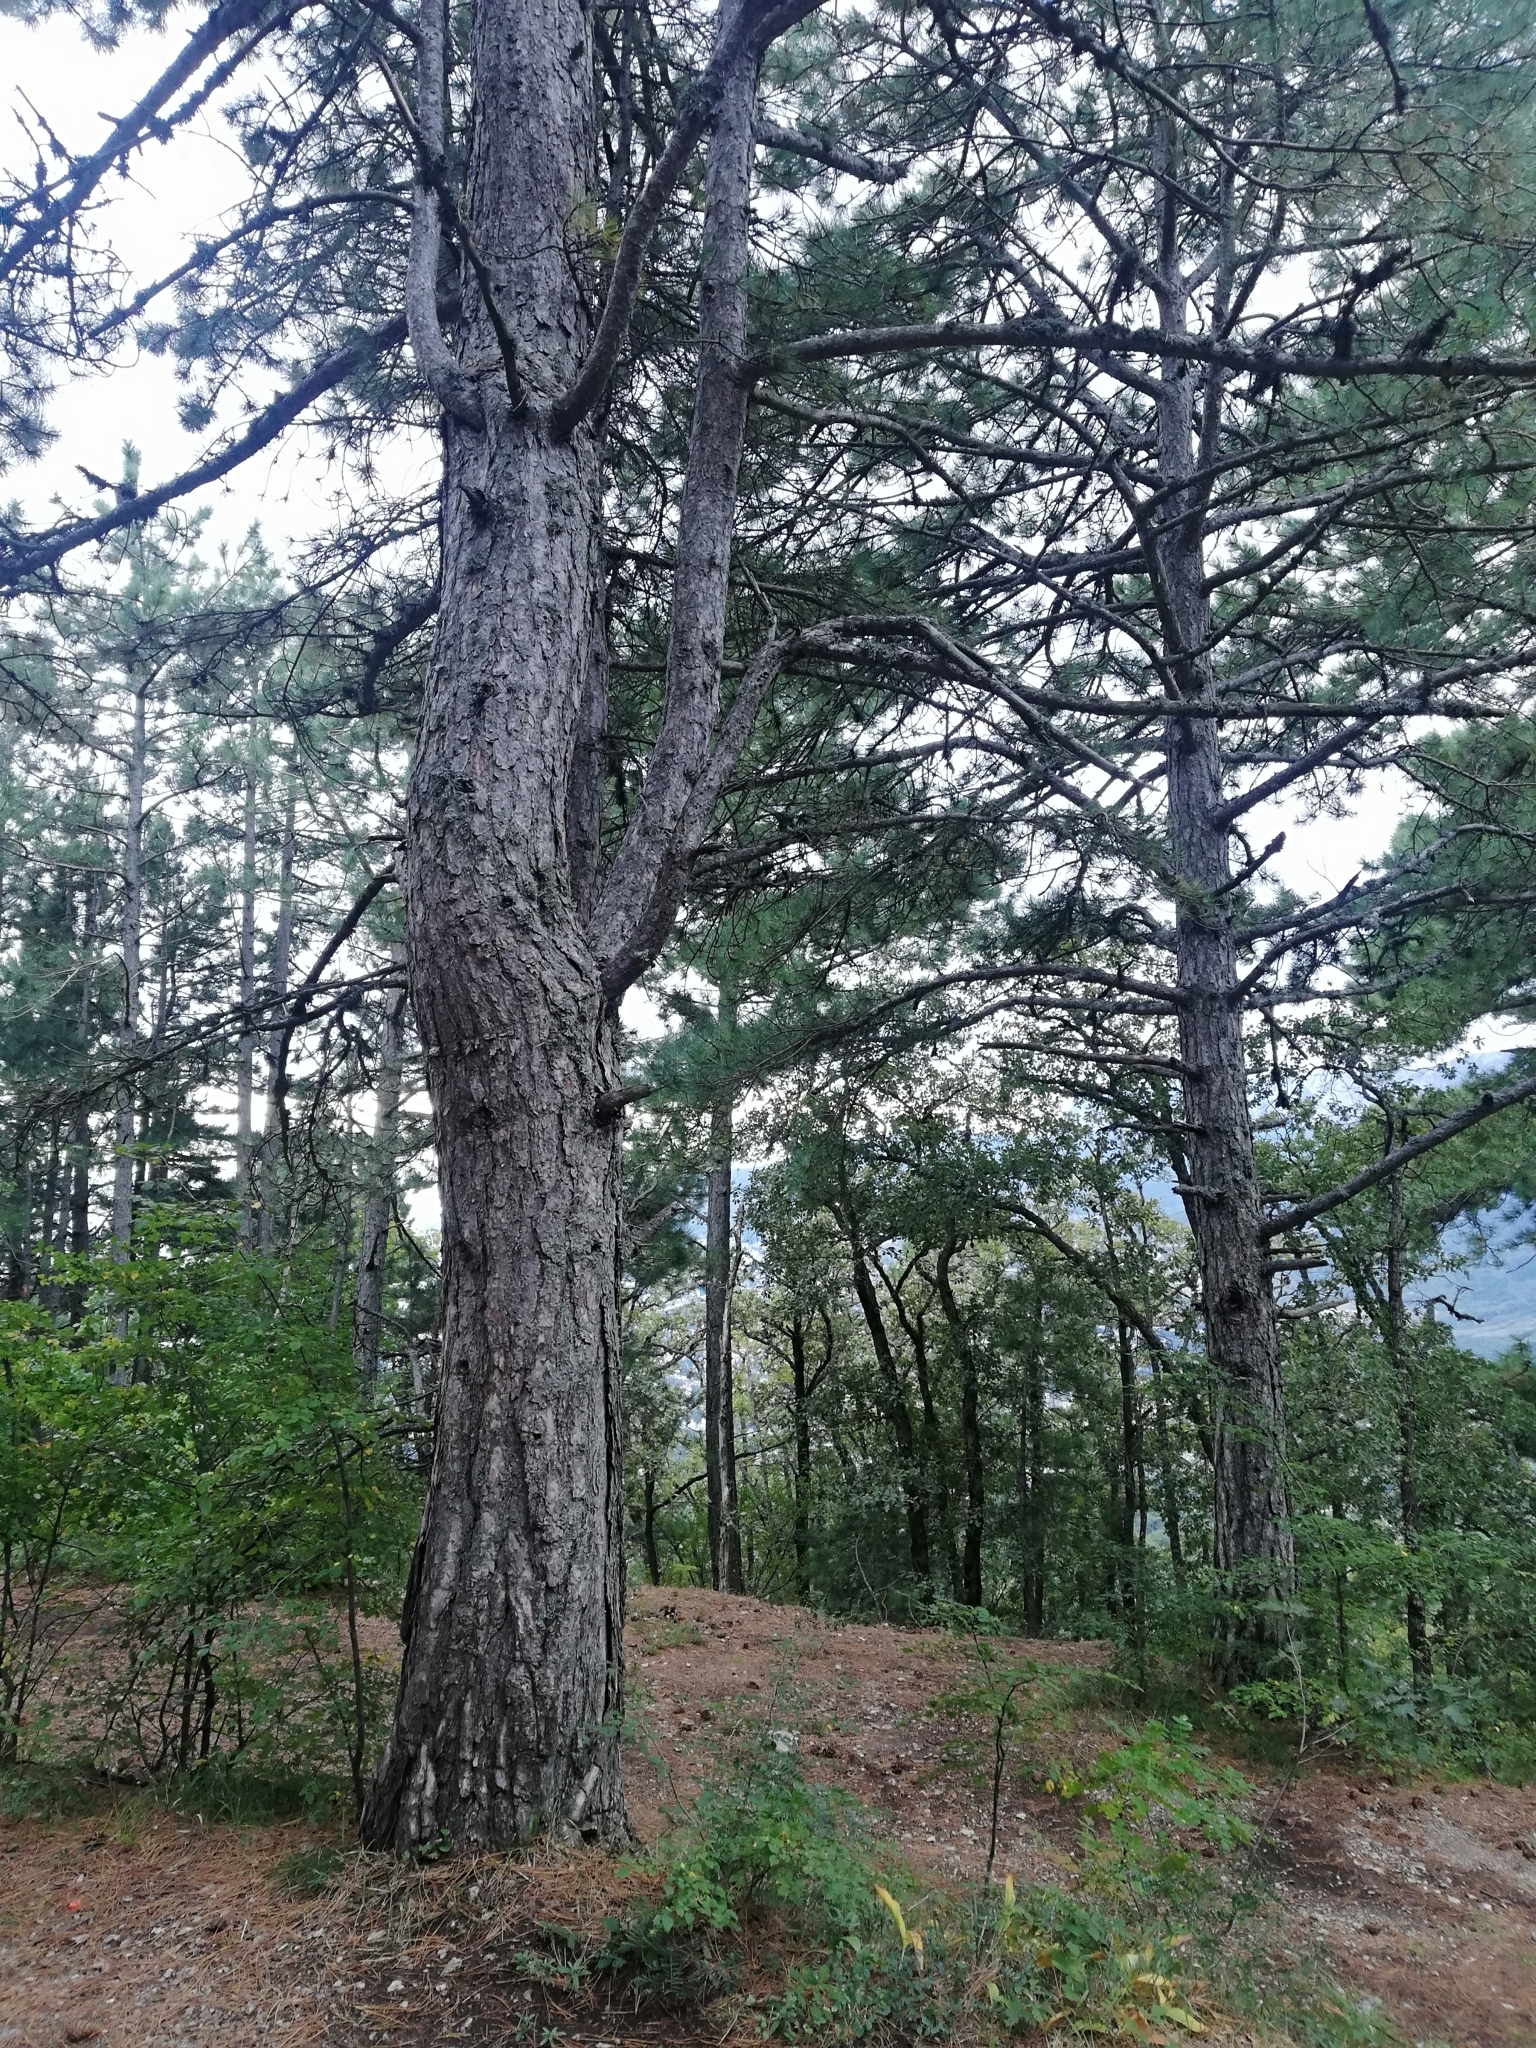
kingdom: Plantae
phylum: Tracheophyta
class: Pinopsida
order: Pinales
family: Pinaceae
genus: Pinus
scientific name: Pinus nigra
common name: Austrian pine
